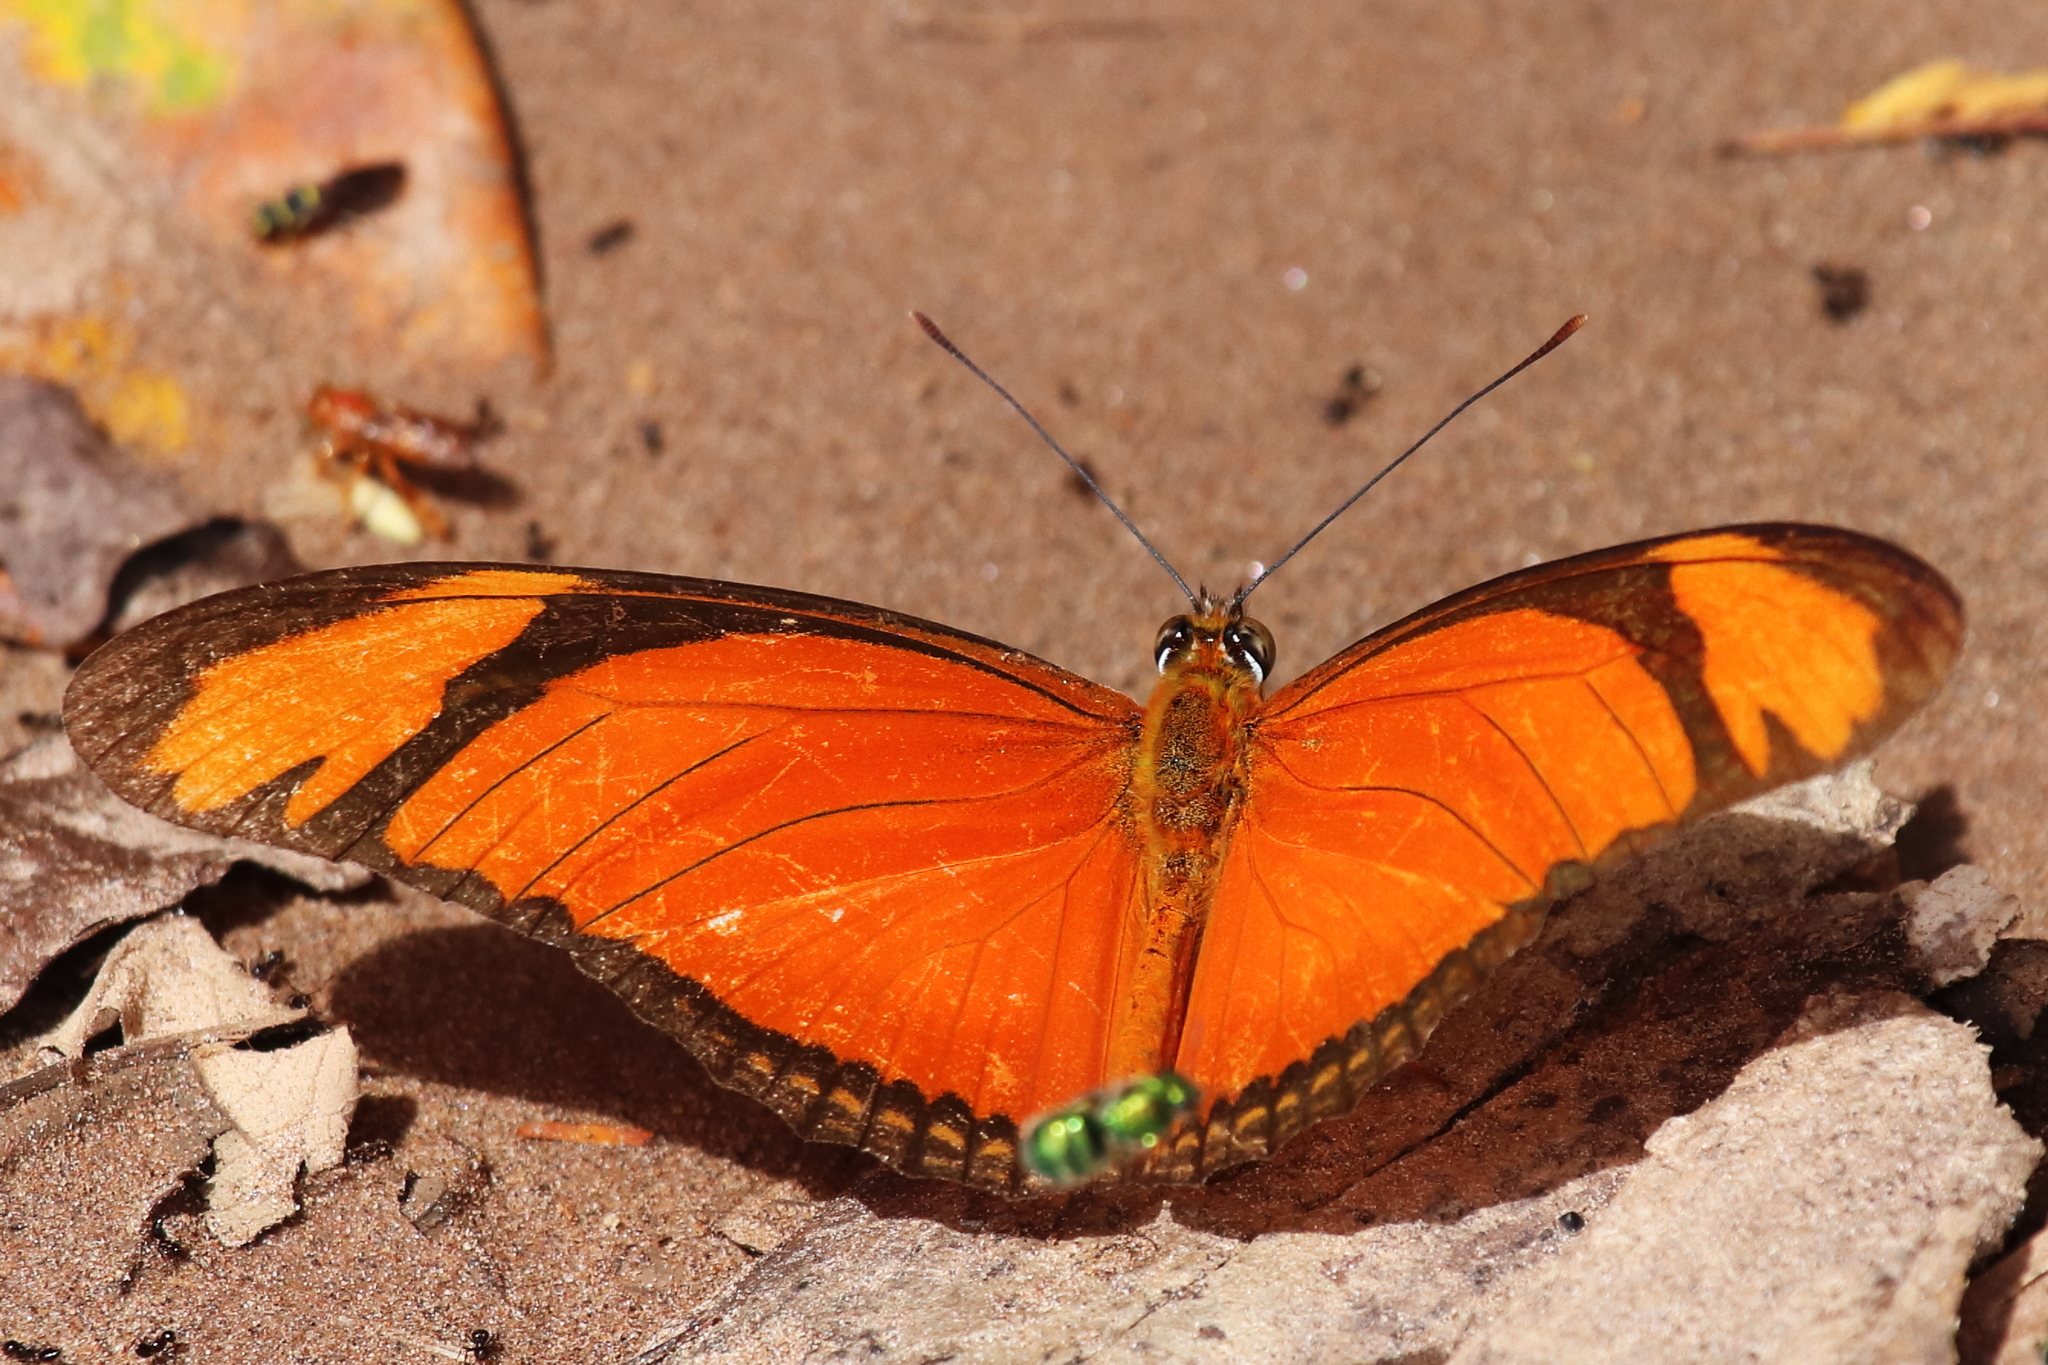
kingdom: Animalia
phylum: Arthropoda
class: Insecta
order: Lepidoptera
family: Nymphalidae
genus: Dryas
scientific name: Dryas iulia
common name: Flambeau
